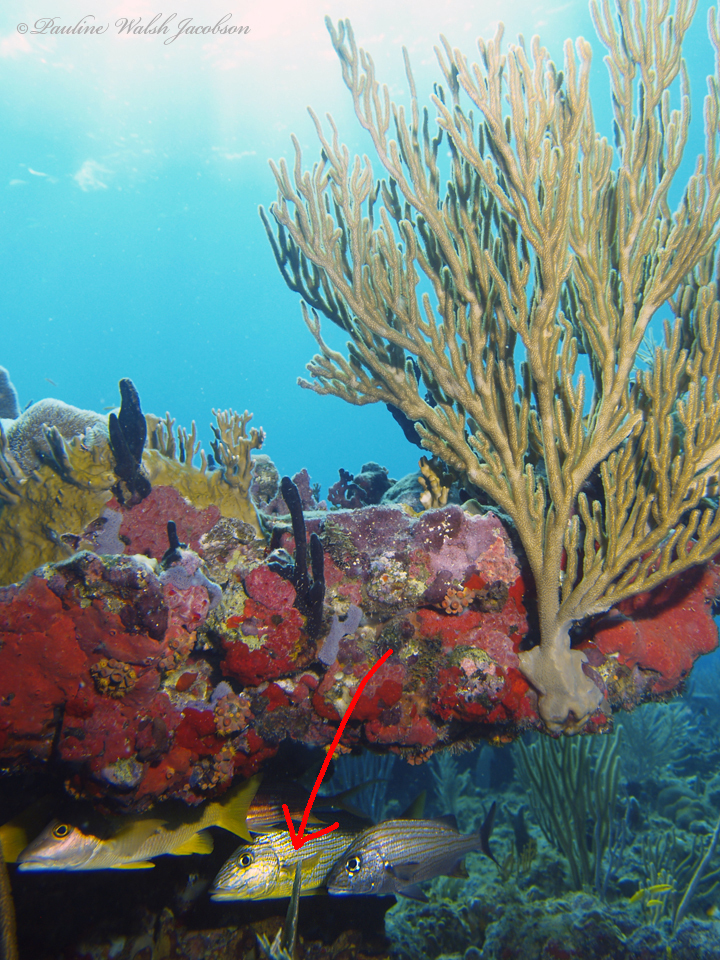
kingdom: Animalia
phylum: Chordata
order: Perciformes
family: Haemulidae
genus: Haemulon
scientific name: Haemulon sciurus
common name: Bluestriped grunt
